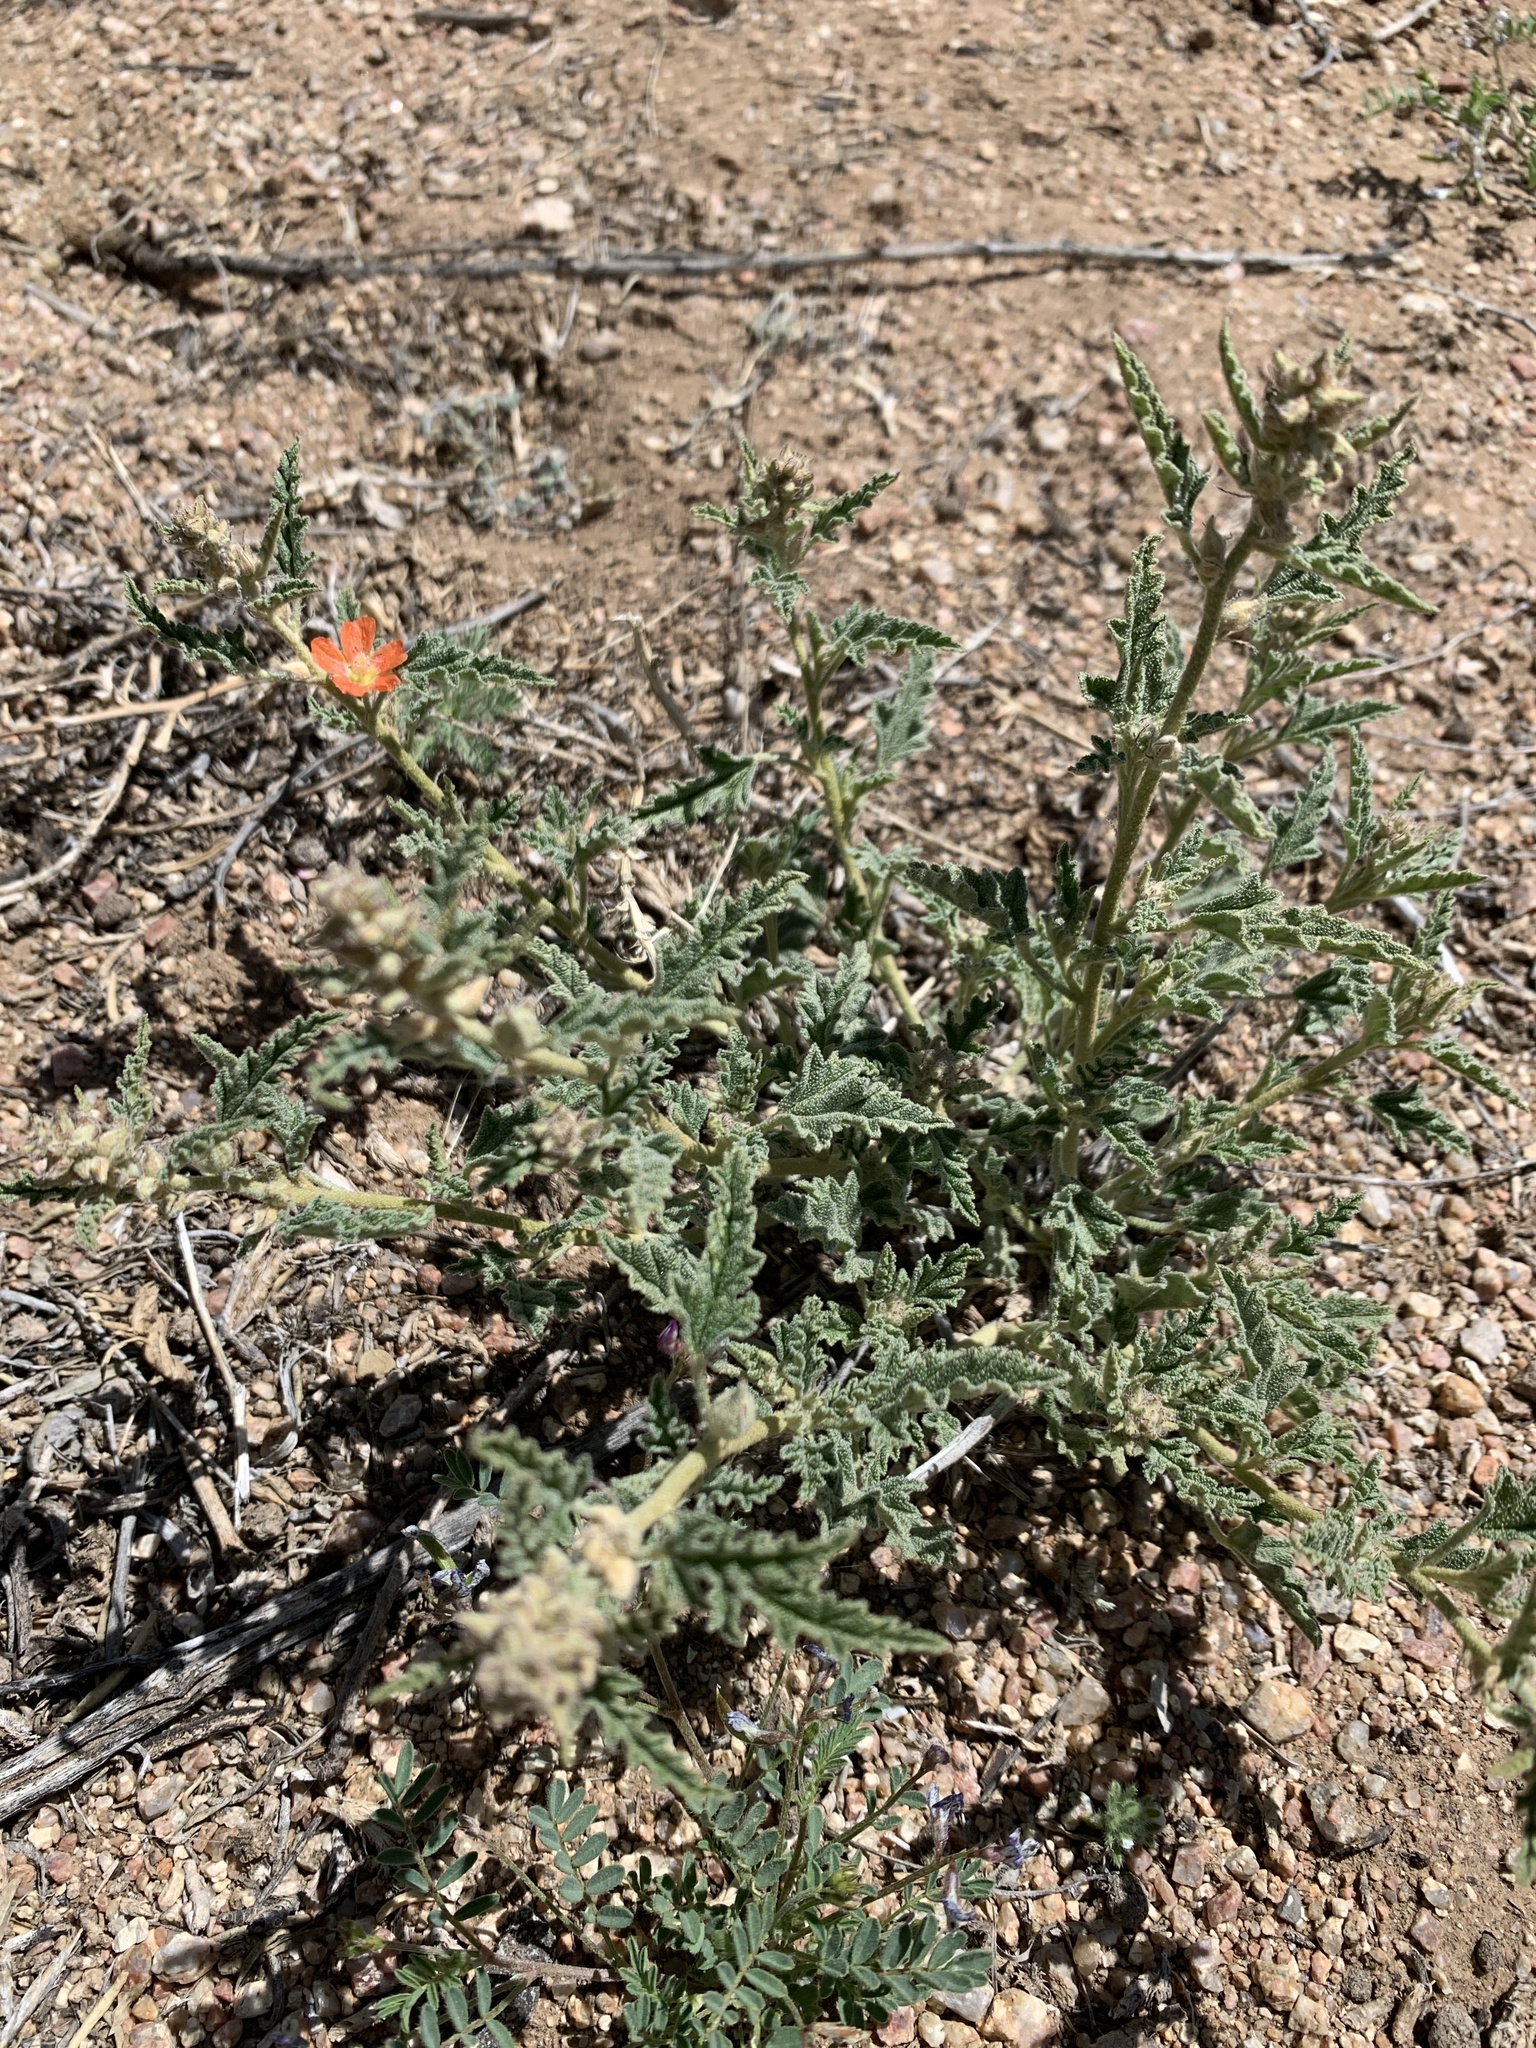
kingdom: Plantae
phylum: Tracheophyta
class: Magnoliopsida
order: Malvales
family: Malvaceae
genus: Sphaeralcea
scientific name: Sphaeralcea hastulata
